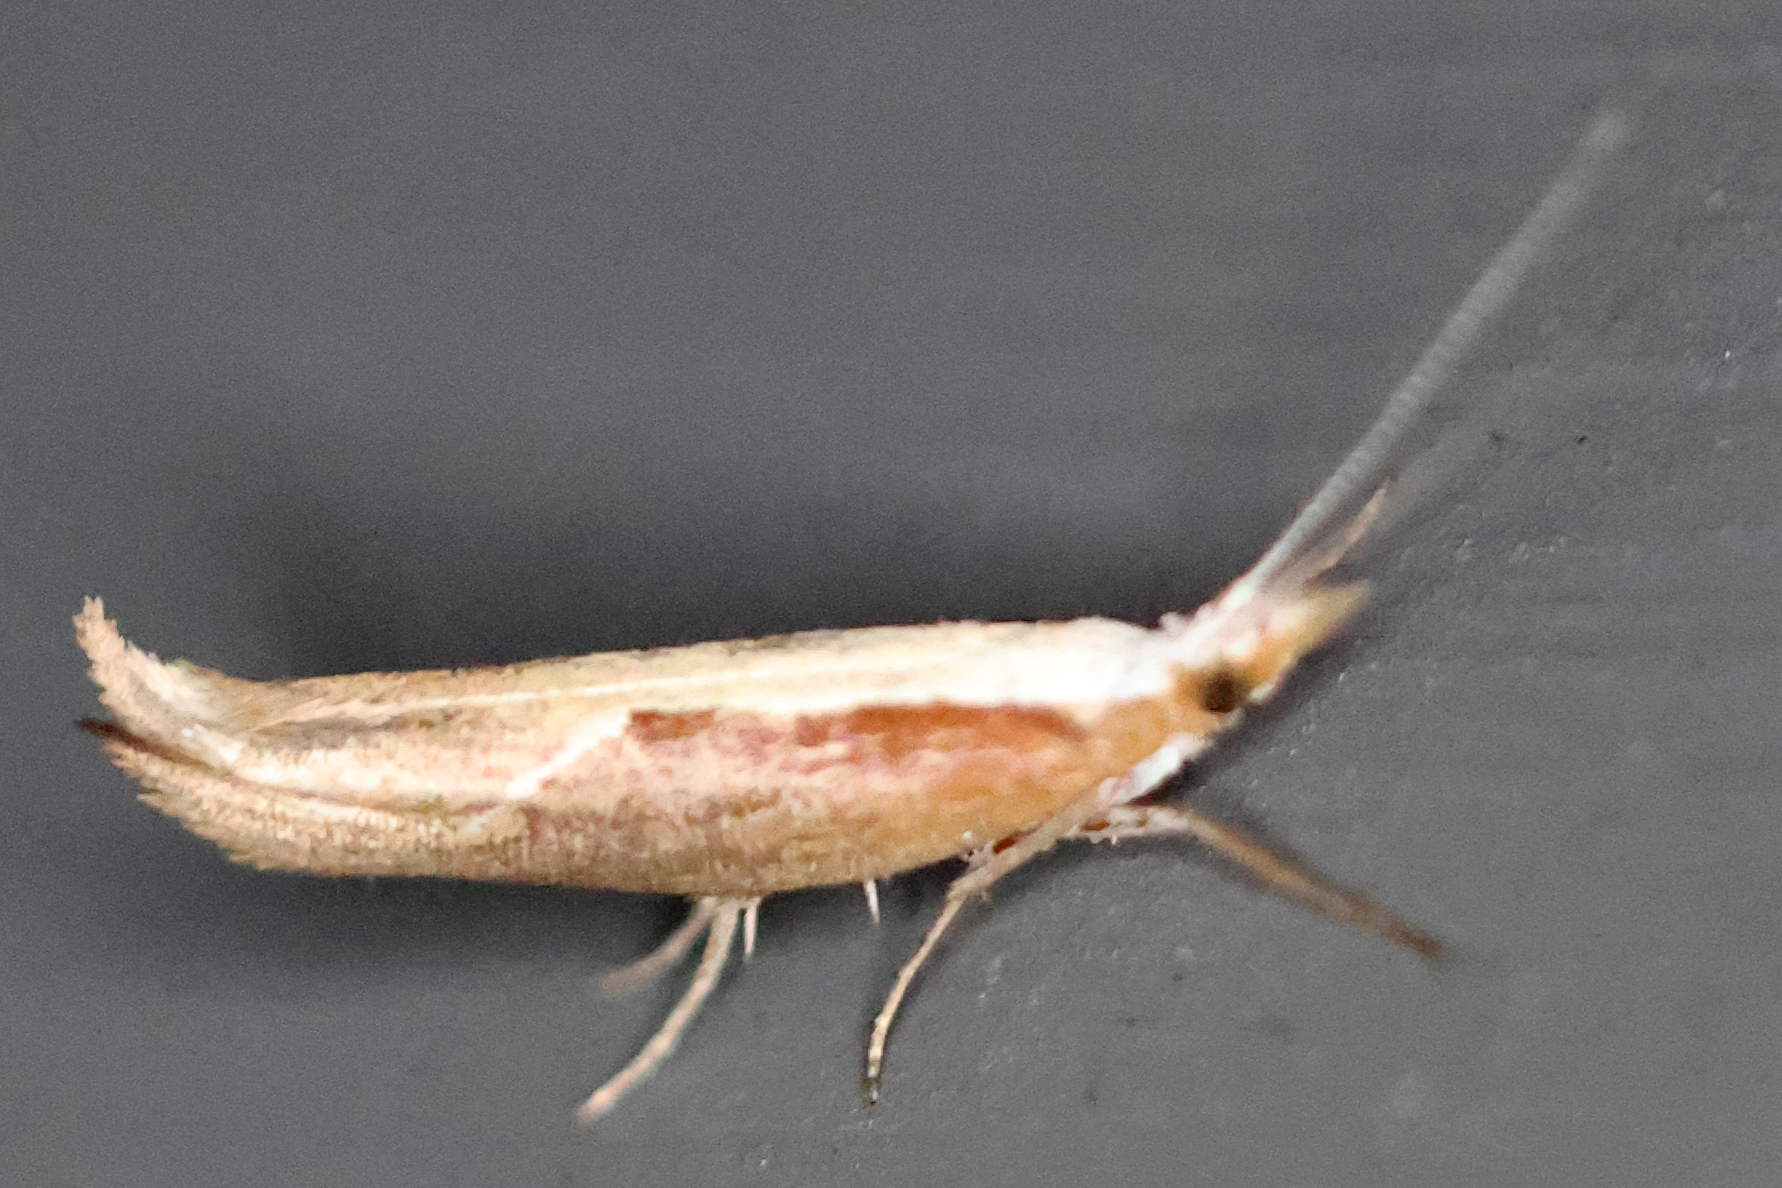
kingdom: Animalia
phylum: Arthropoda
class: Insecta
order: Lepidoptera
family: Ypsolophidae
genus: Ypsolopha
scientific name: Ypsolopha dentella
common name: Honeysuckle moth
